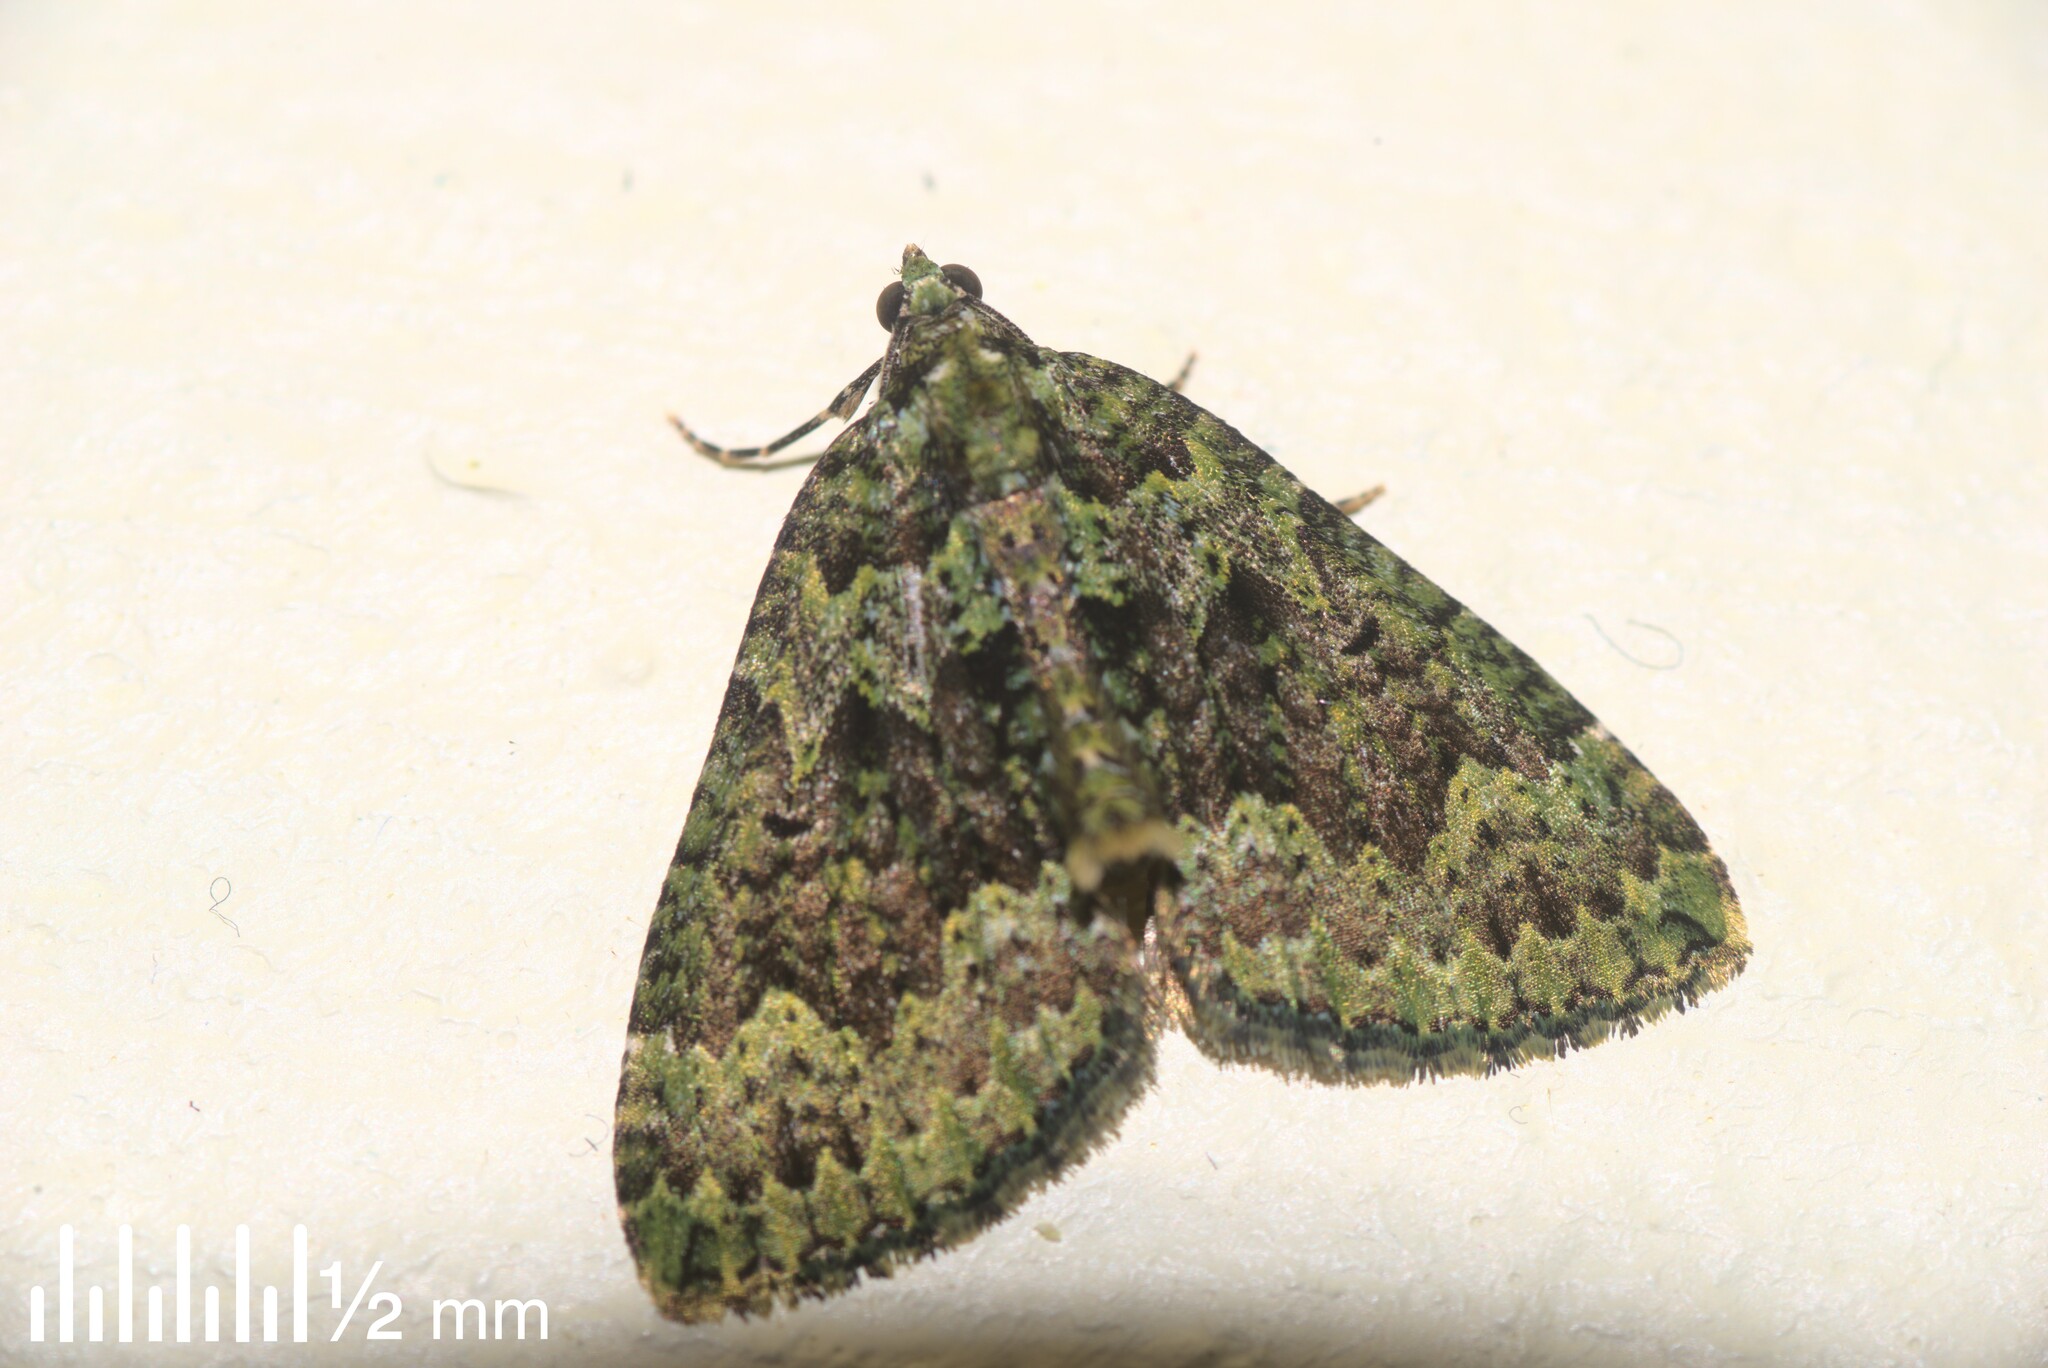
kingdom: Animalia
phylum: Arthropoda
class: Insecta
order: Lepidoptera
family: Geometridae
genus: Austrocidaria
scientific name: Austrocidaria callichlora
